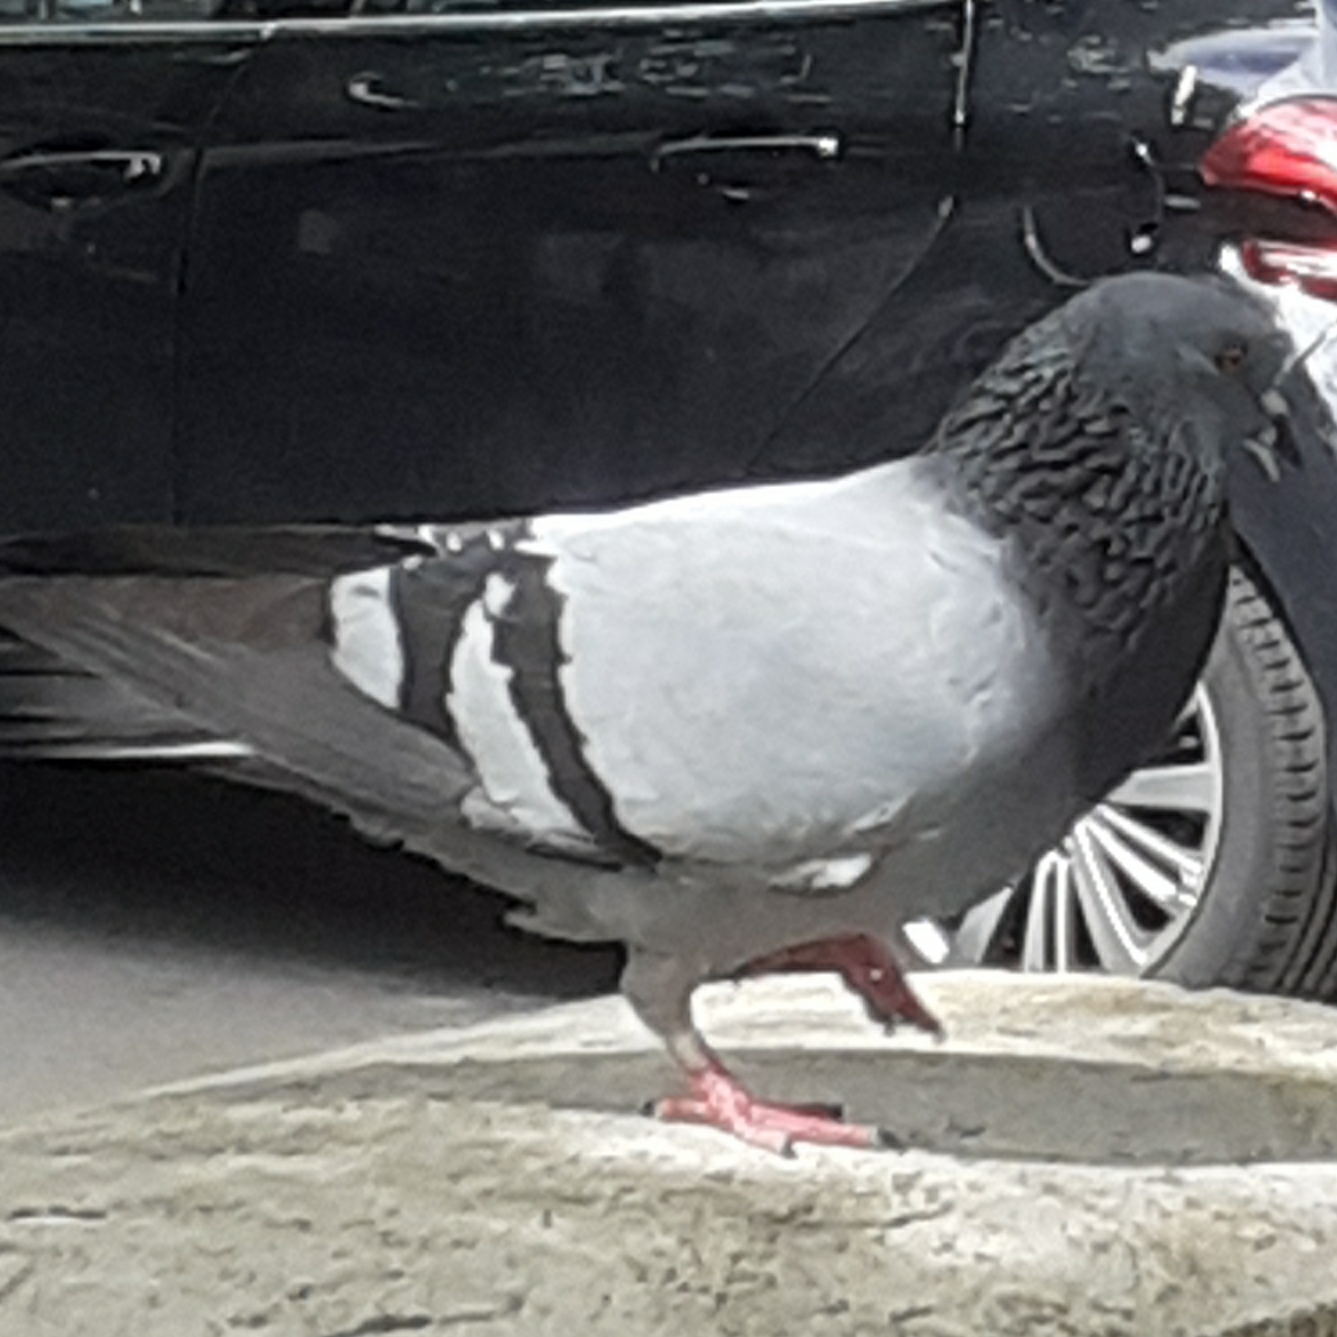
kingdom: Animalia
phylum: Chordata
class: Aves
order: Columbiformes
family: Columbidae
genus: Columba
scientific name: Columba livia
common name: Rock pigeon
